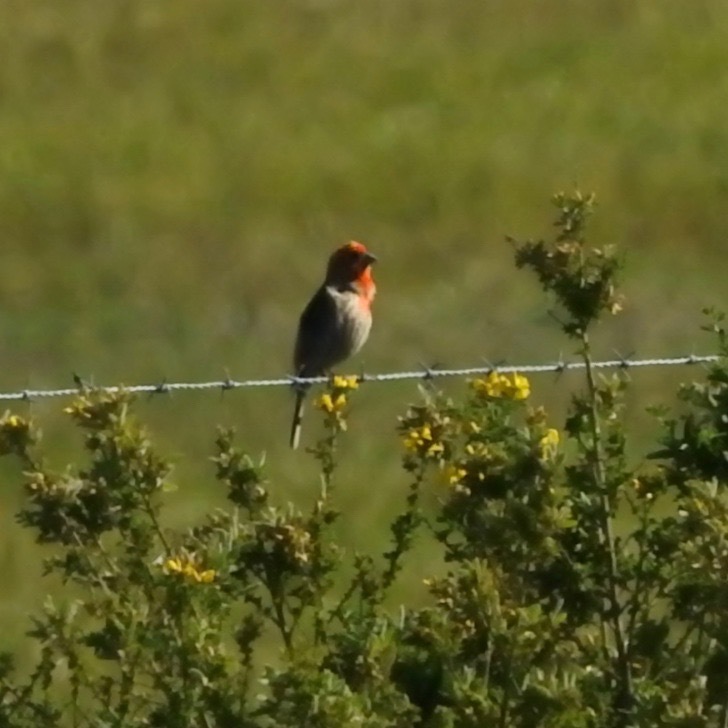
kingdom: Animalia
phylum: Chordata
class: Aves
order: Passeriformes
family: Fringillidae
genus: Haemorhous
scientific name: Haemorhous mexicanus
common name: House finch
